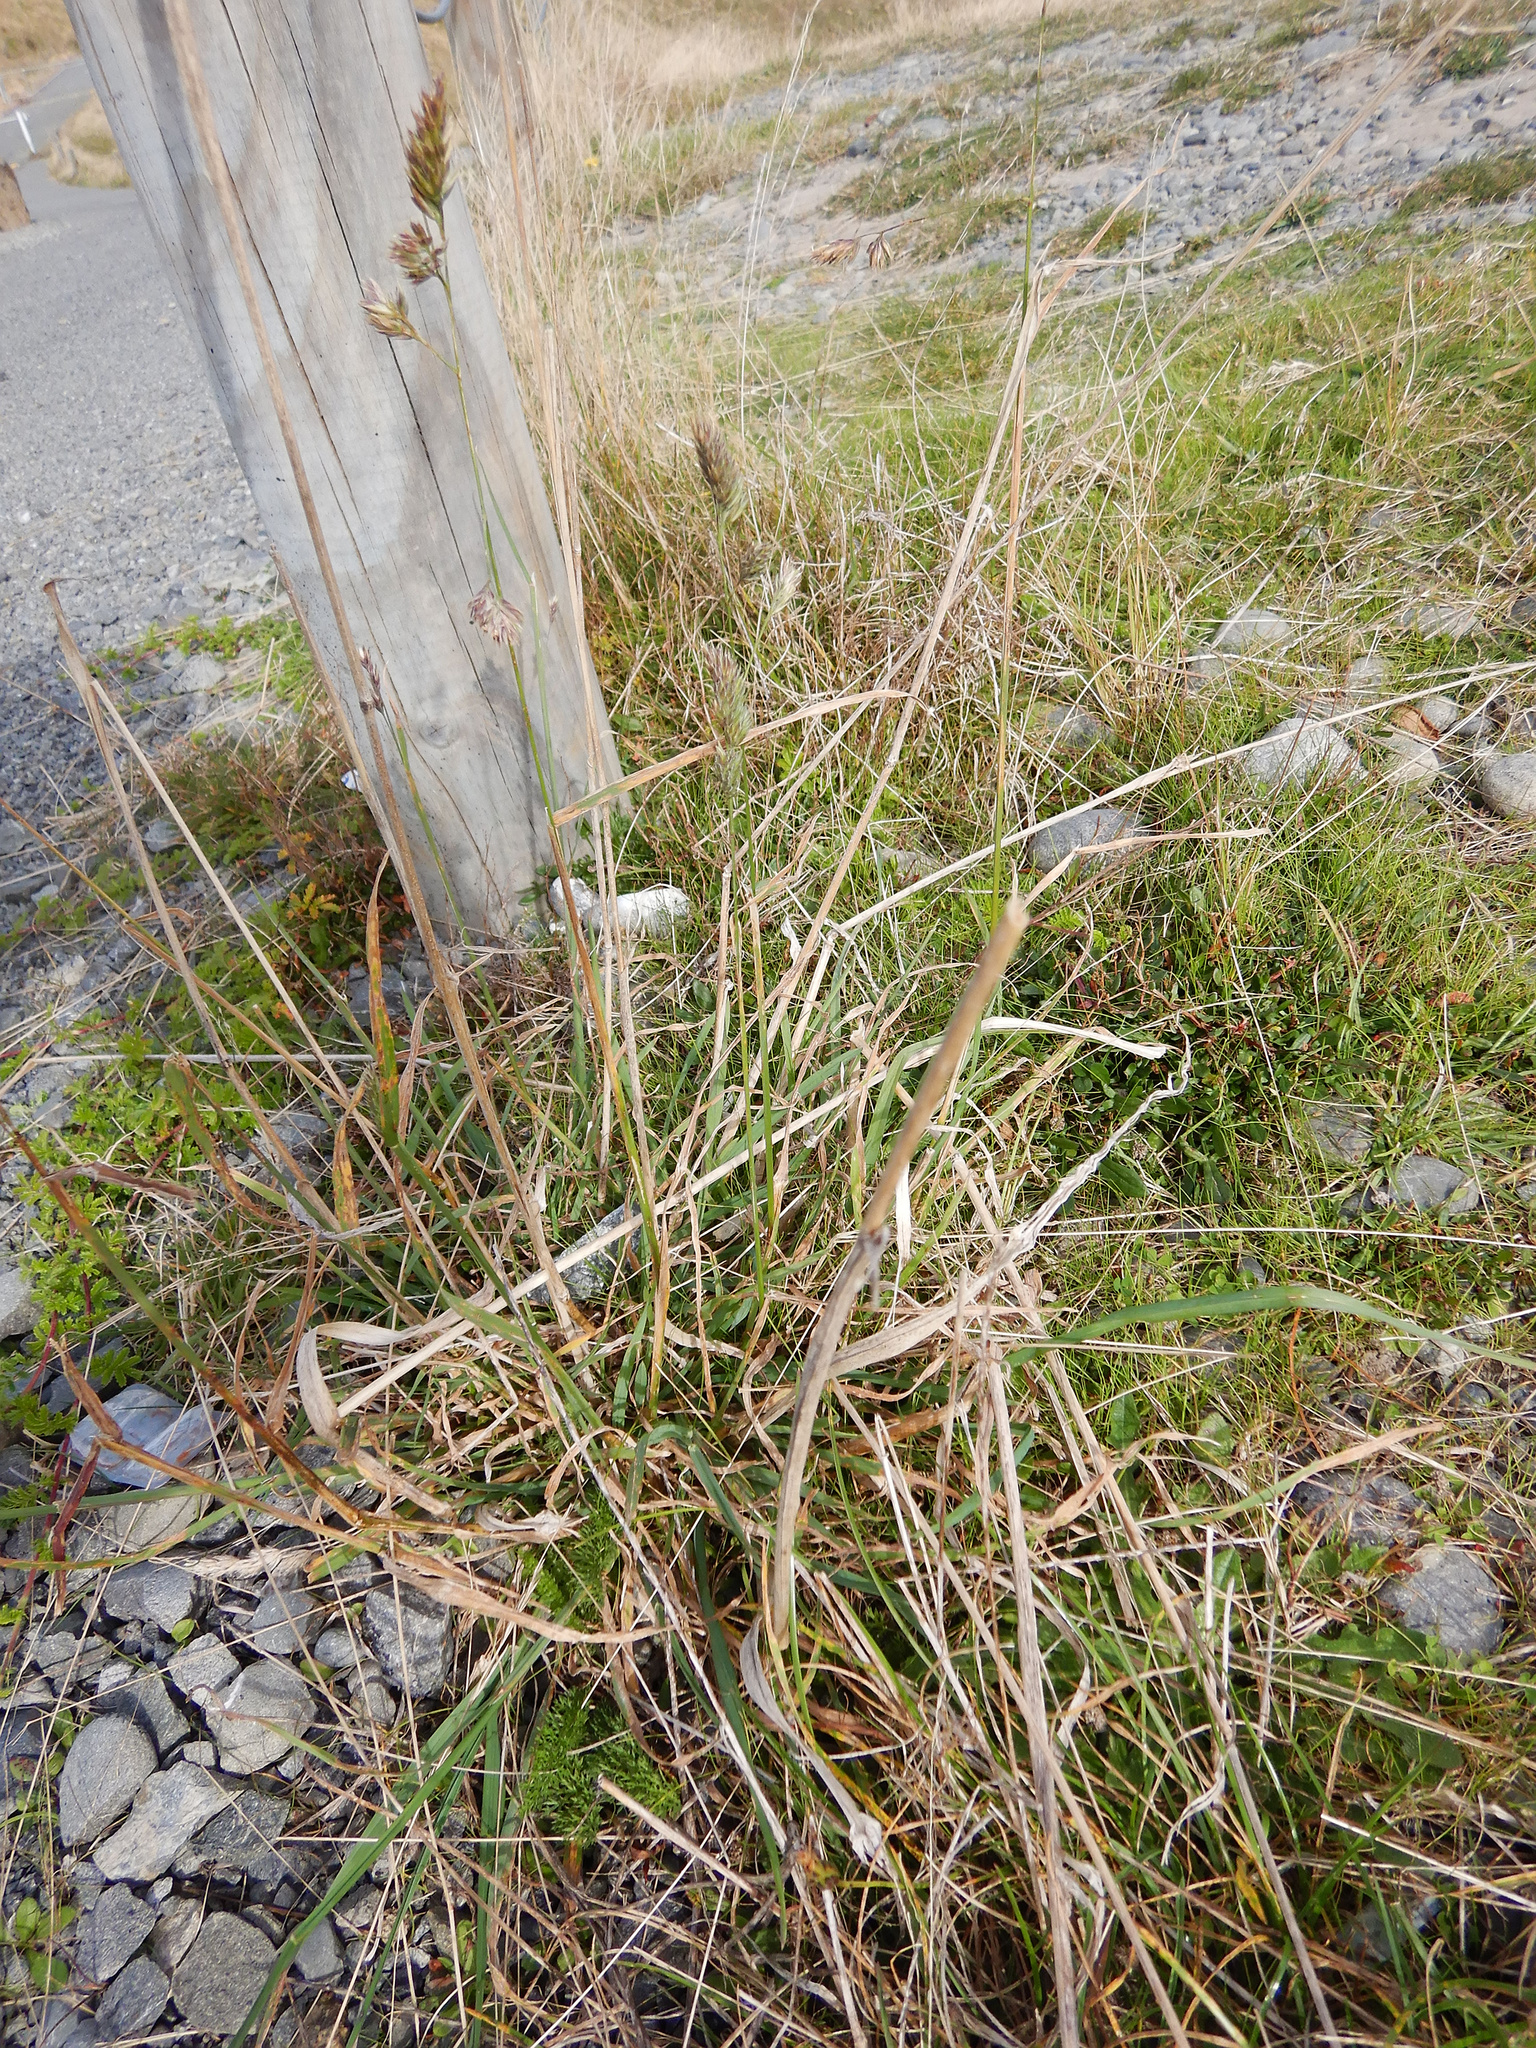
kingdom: Plantae
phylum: Tracheophyta
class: Liliopsida
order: Poales
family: Poaceae
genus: Dactylis
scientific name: Dactylis glomerata
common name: Orchardgrass
